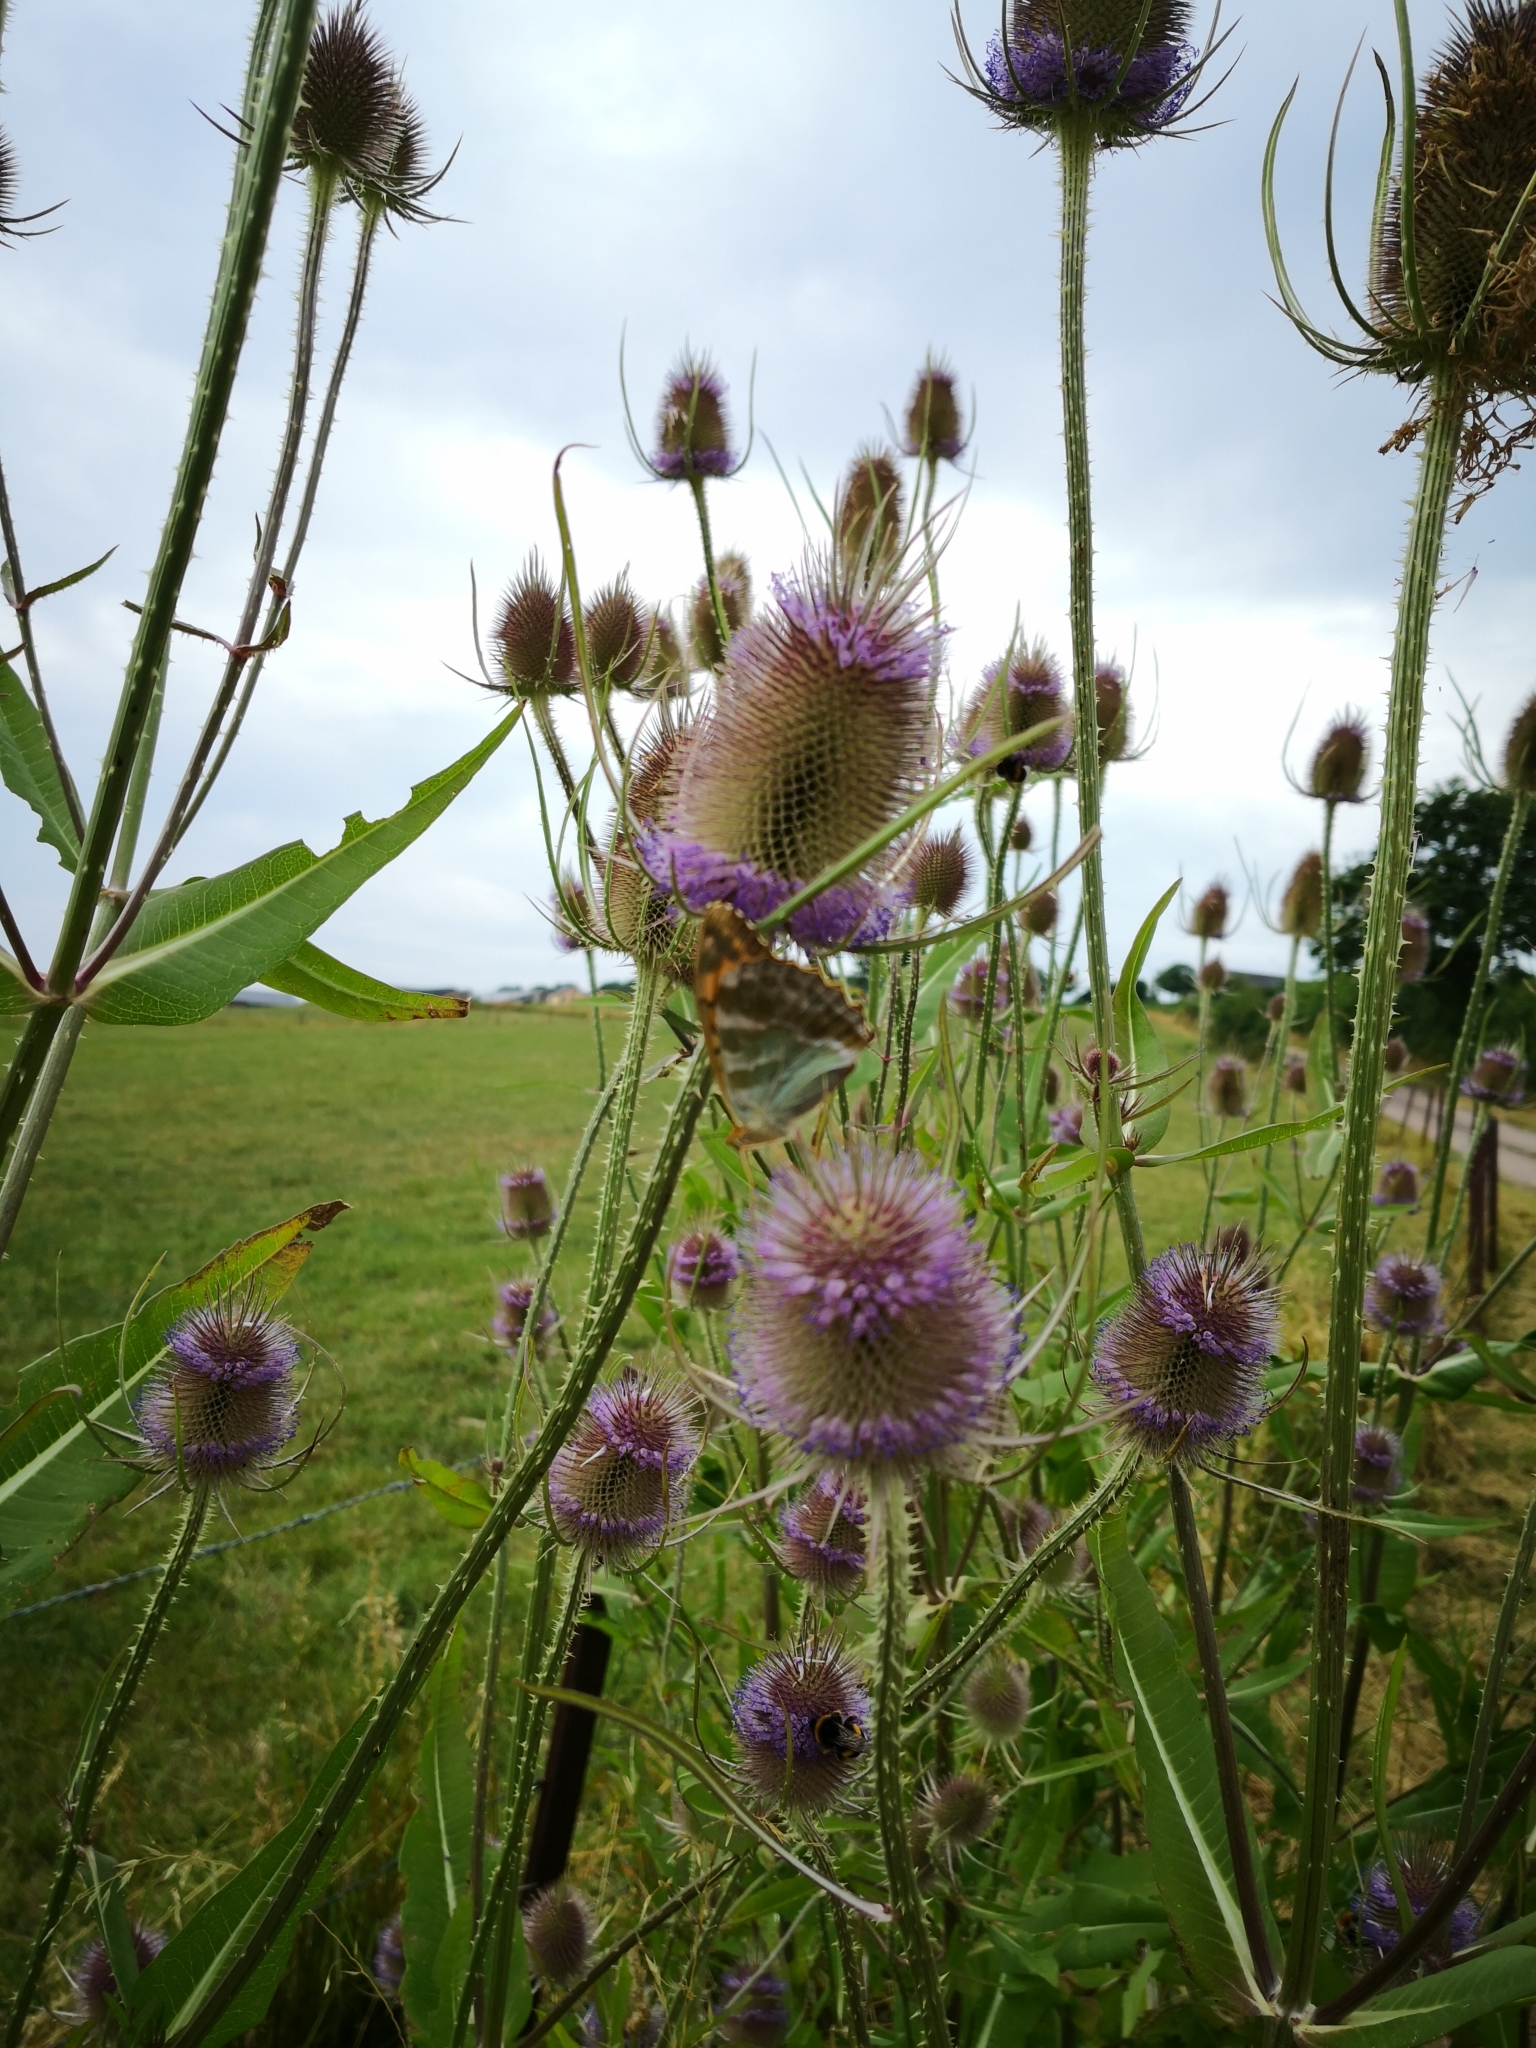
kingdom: Plantae
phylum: Tracheophyta
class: Magnoliopsida
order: Dipsacales
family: Caprifoliaceae
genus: Dipsacus
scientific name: Dipsacus fullonum
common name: Teasel
